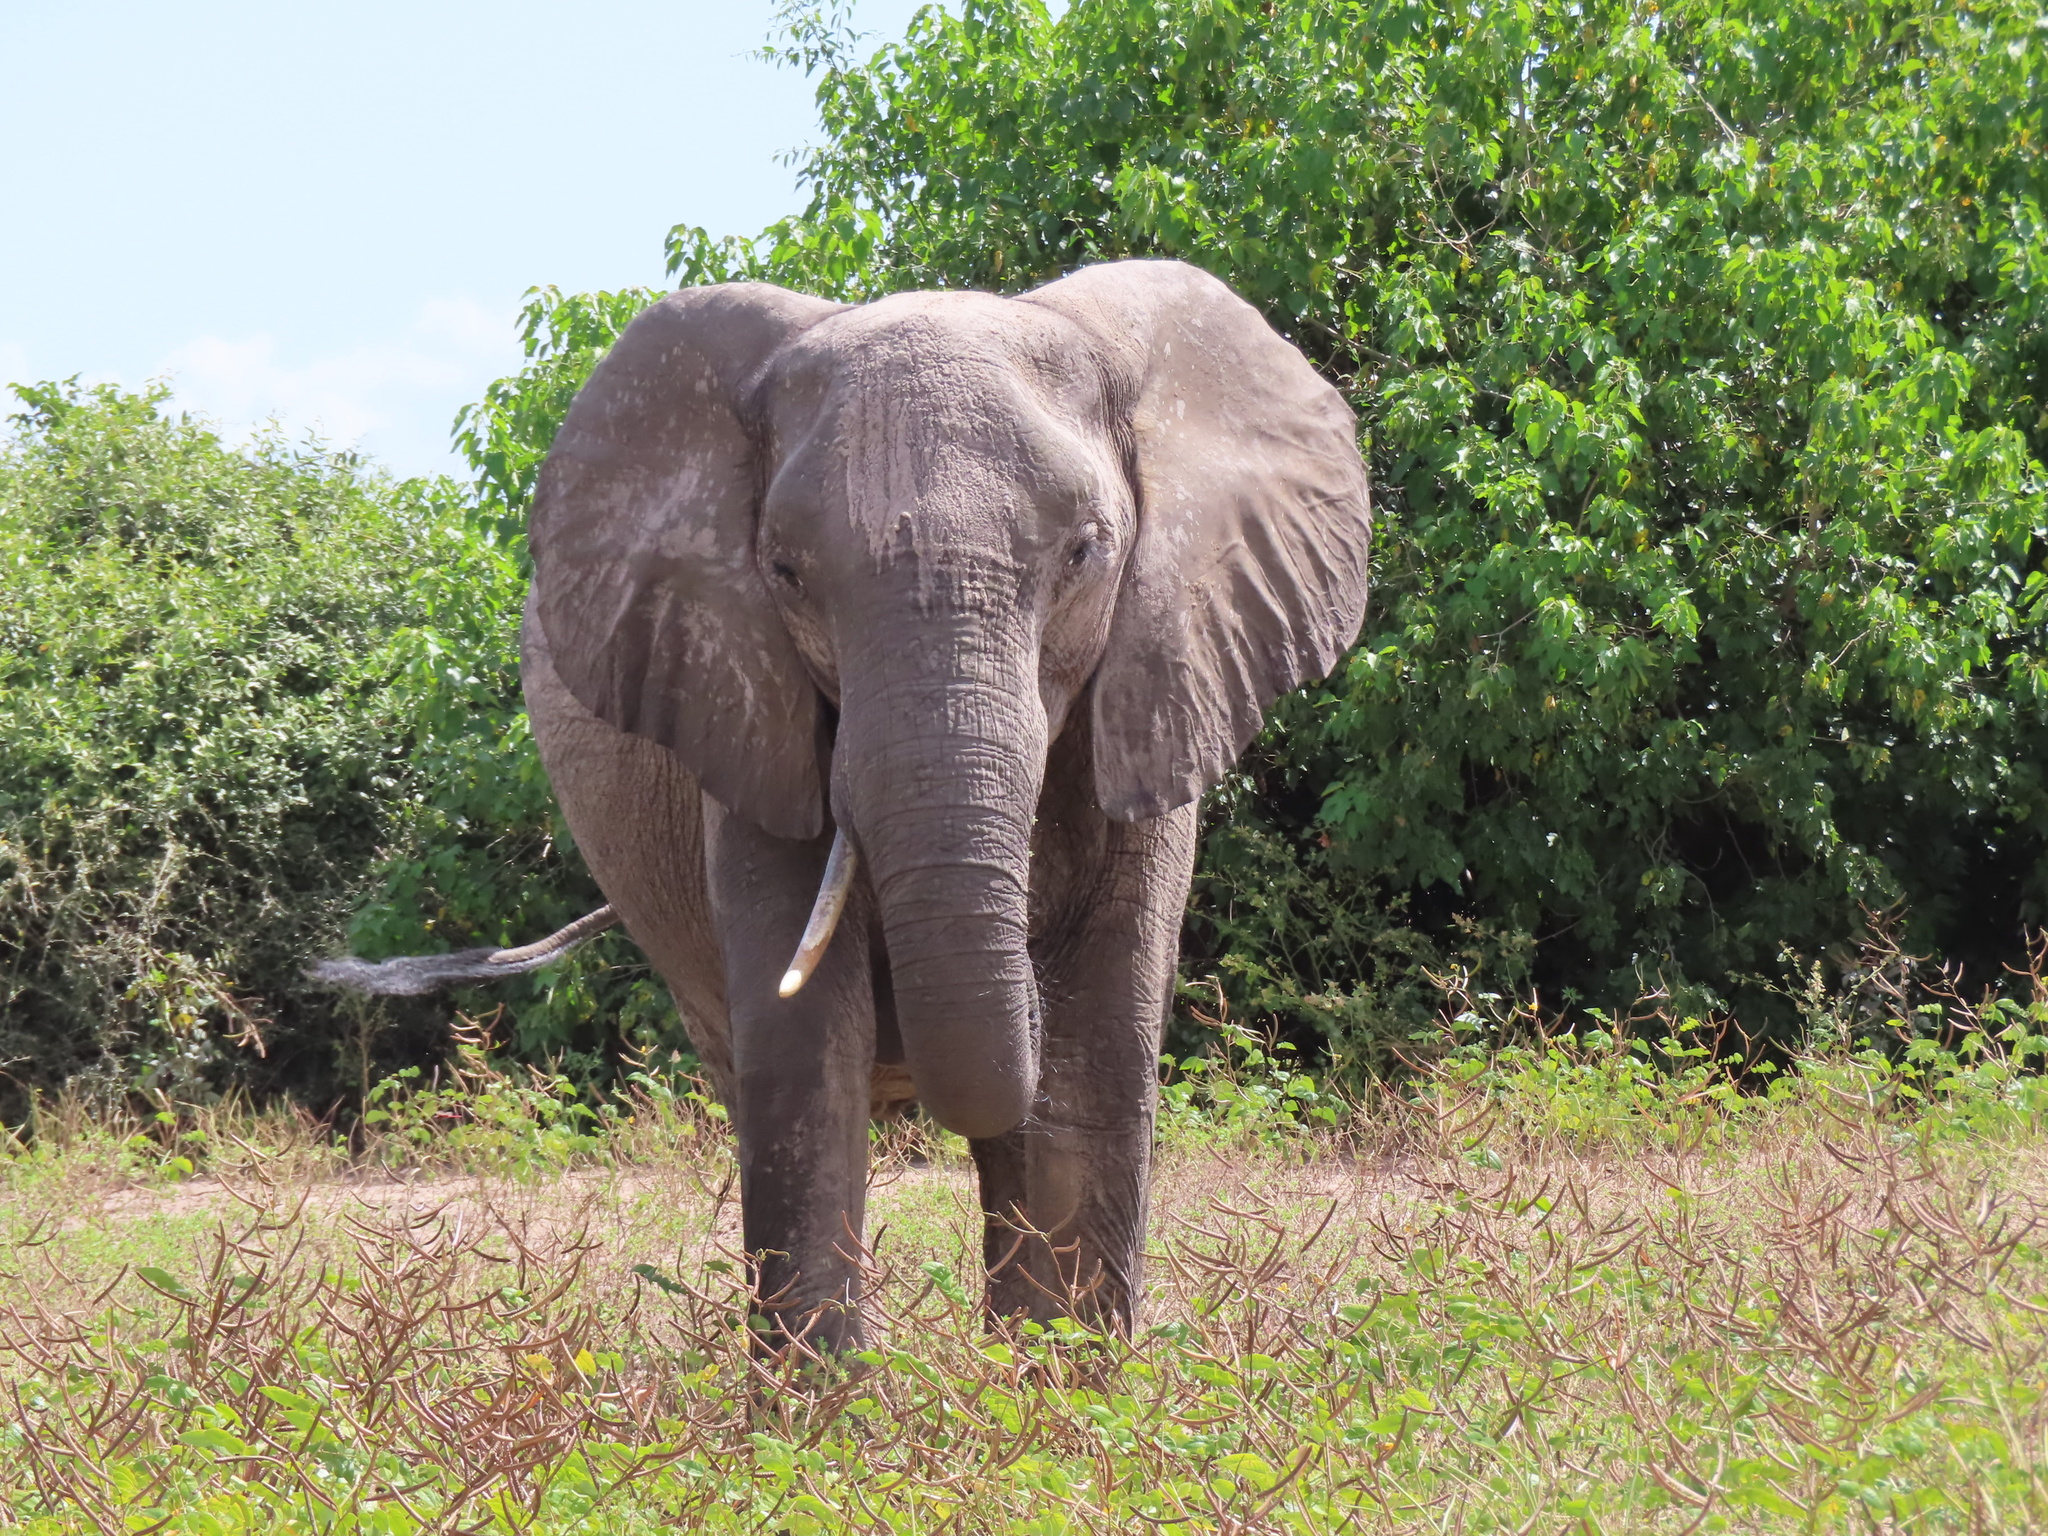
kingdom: Animalia
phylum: Chordata
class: Mammalia
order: Proboscidea
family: Elephantidae
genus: Loxodonta
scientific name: Loxodonta africana
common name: African elephant
